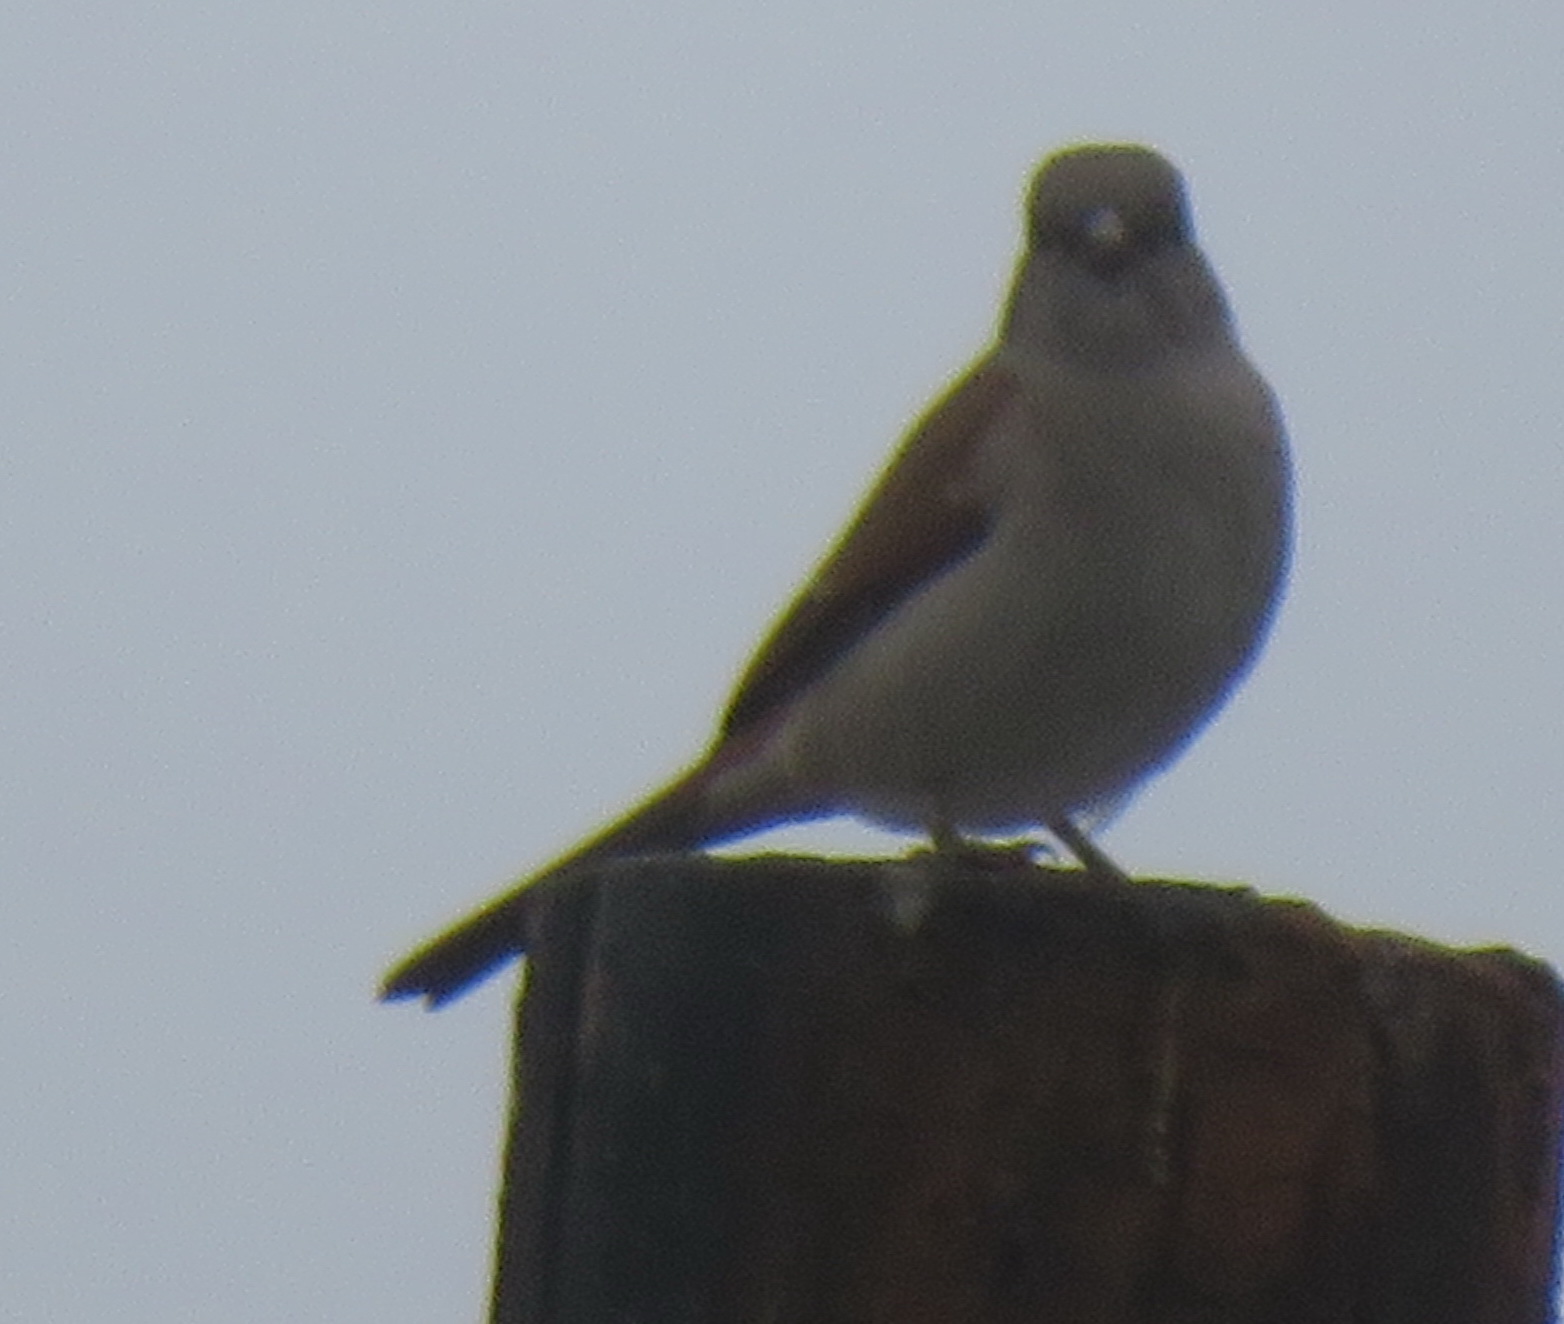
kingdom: Animalia
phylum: Chordata
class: Aves
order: Passeriformes
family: Passeridae
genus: Passer
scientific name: Passer diffusus
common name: Southern grey-headed sparrow
